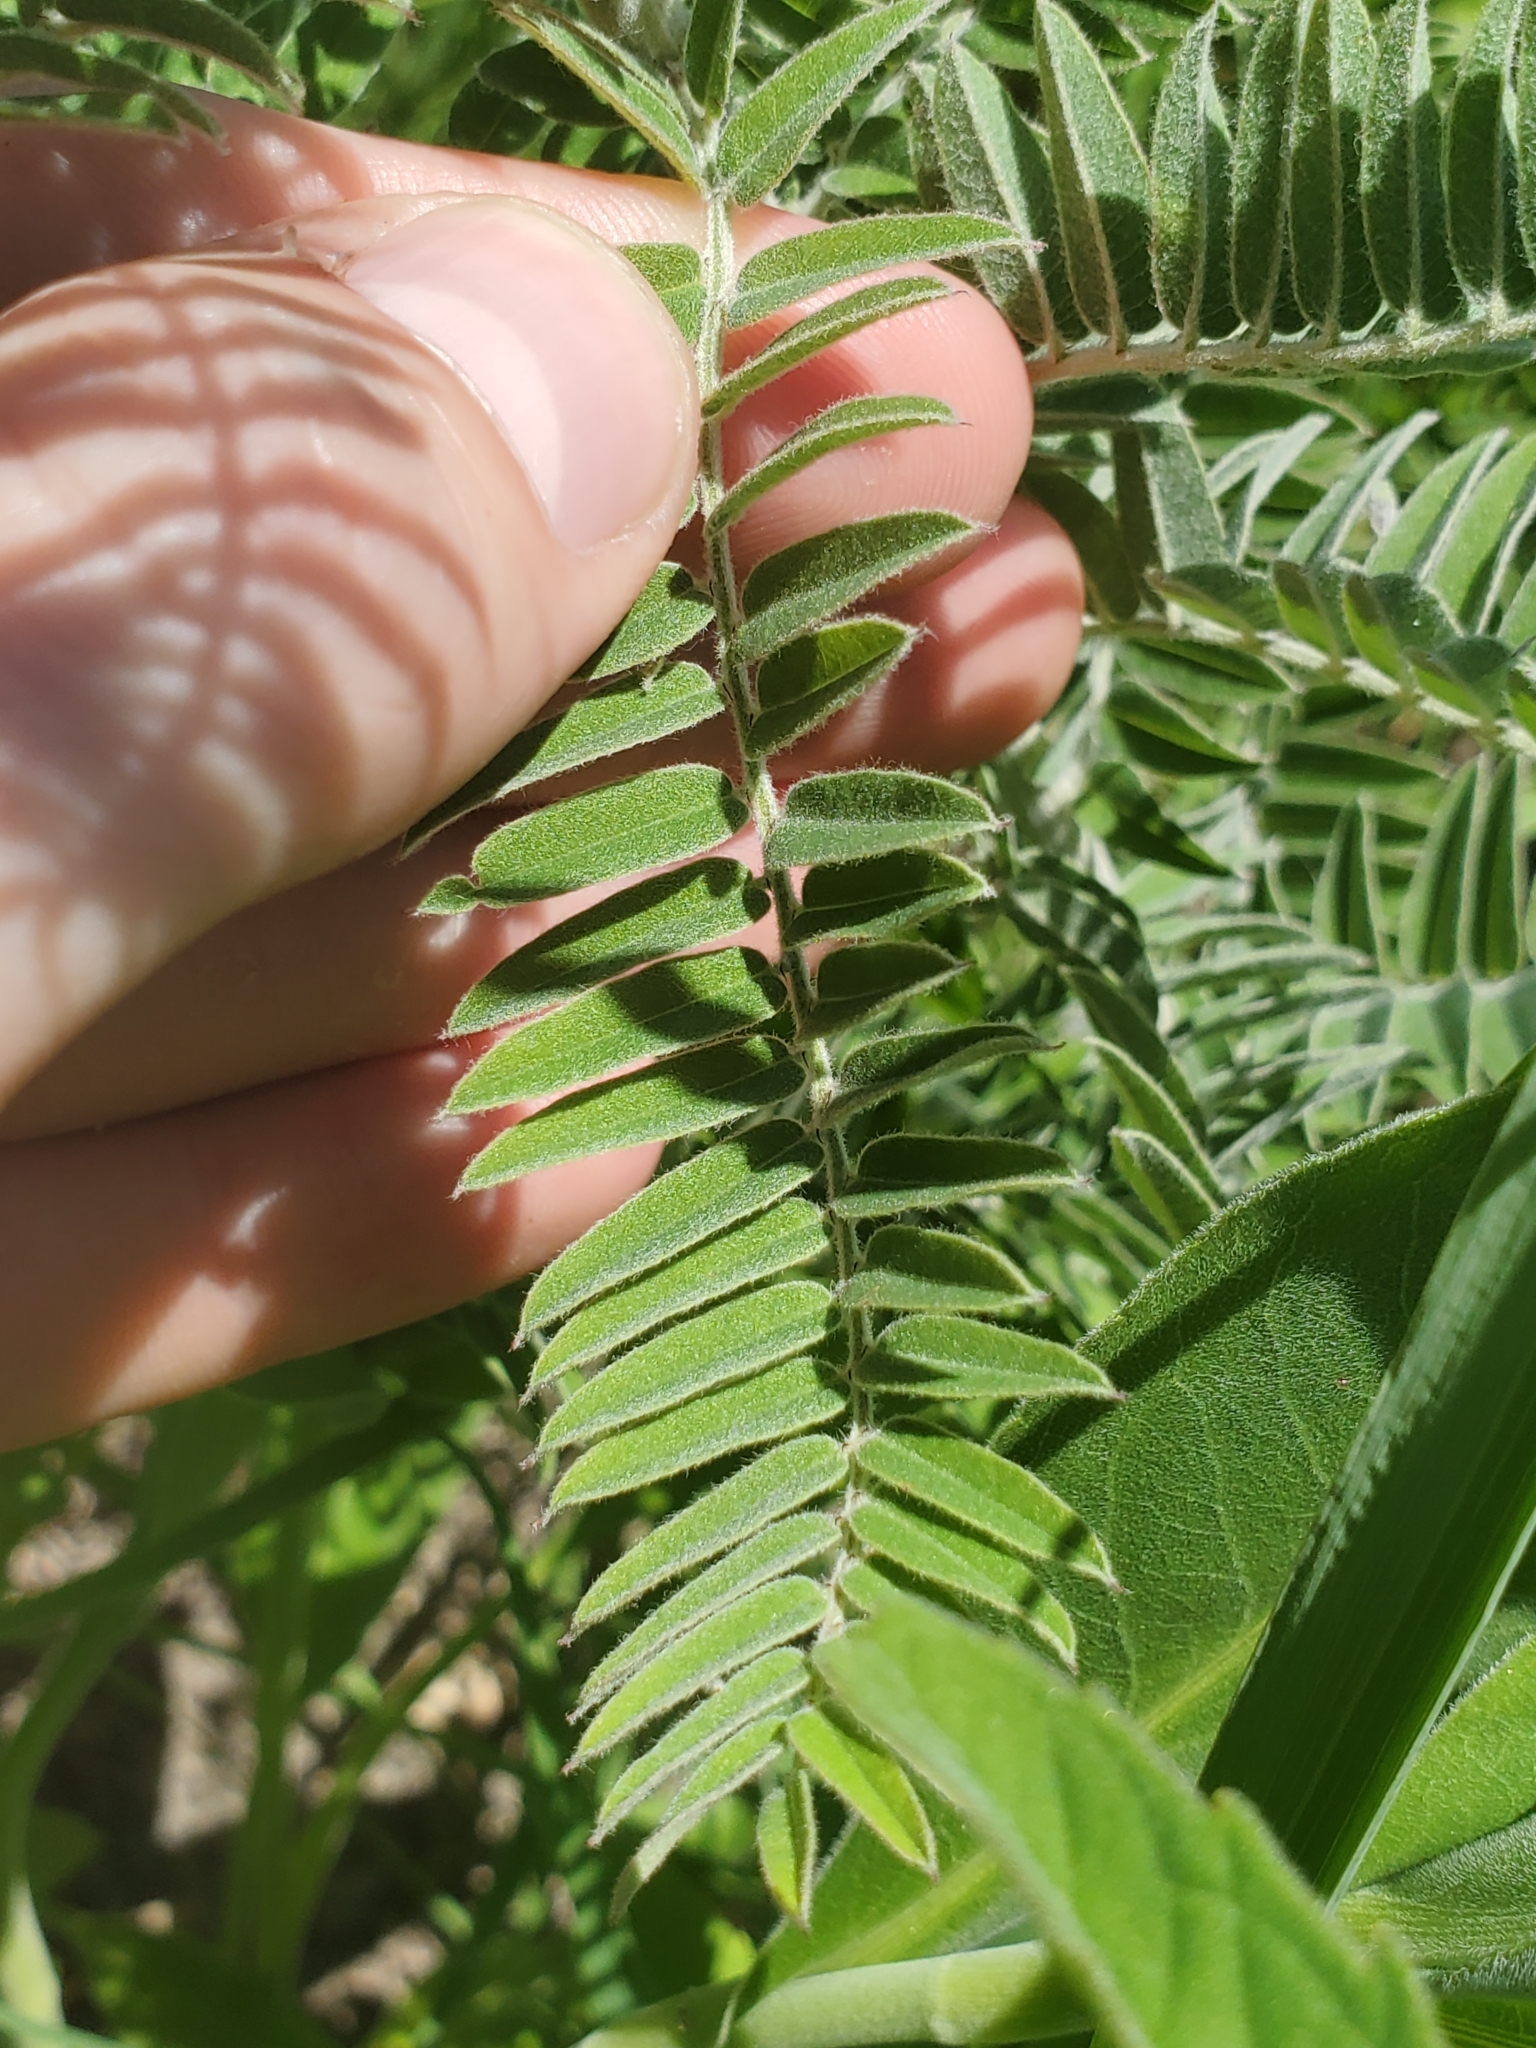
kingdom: Plantae
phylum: Tracheophyta
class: Magnoliopsida
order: Fabales
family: Fabaceae
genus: Amorpha
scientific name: Amorpha canescens
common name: Leadplant
